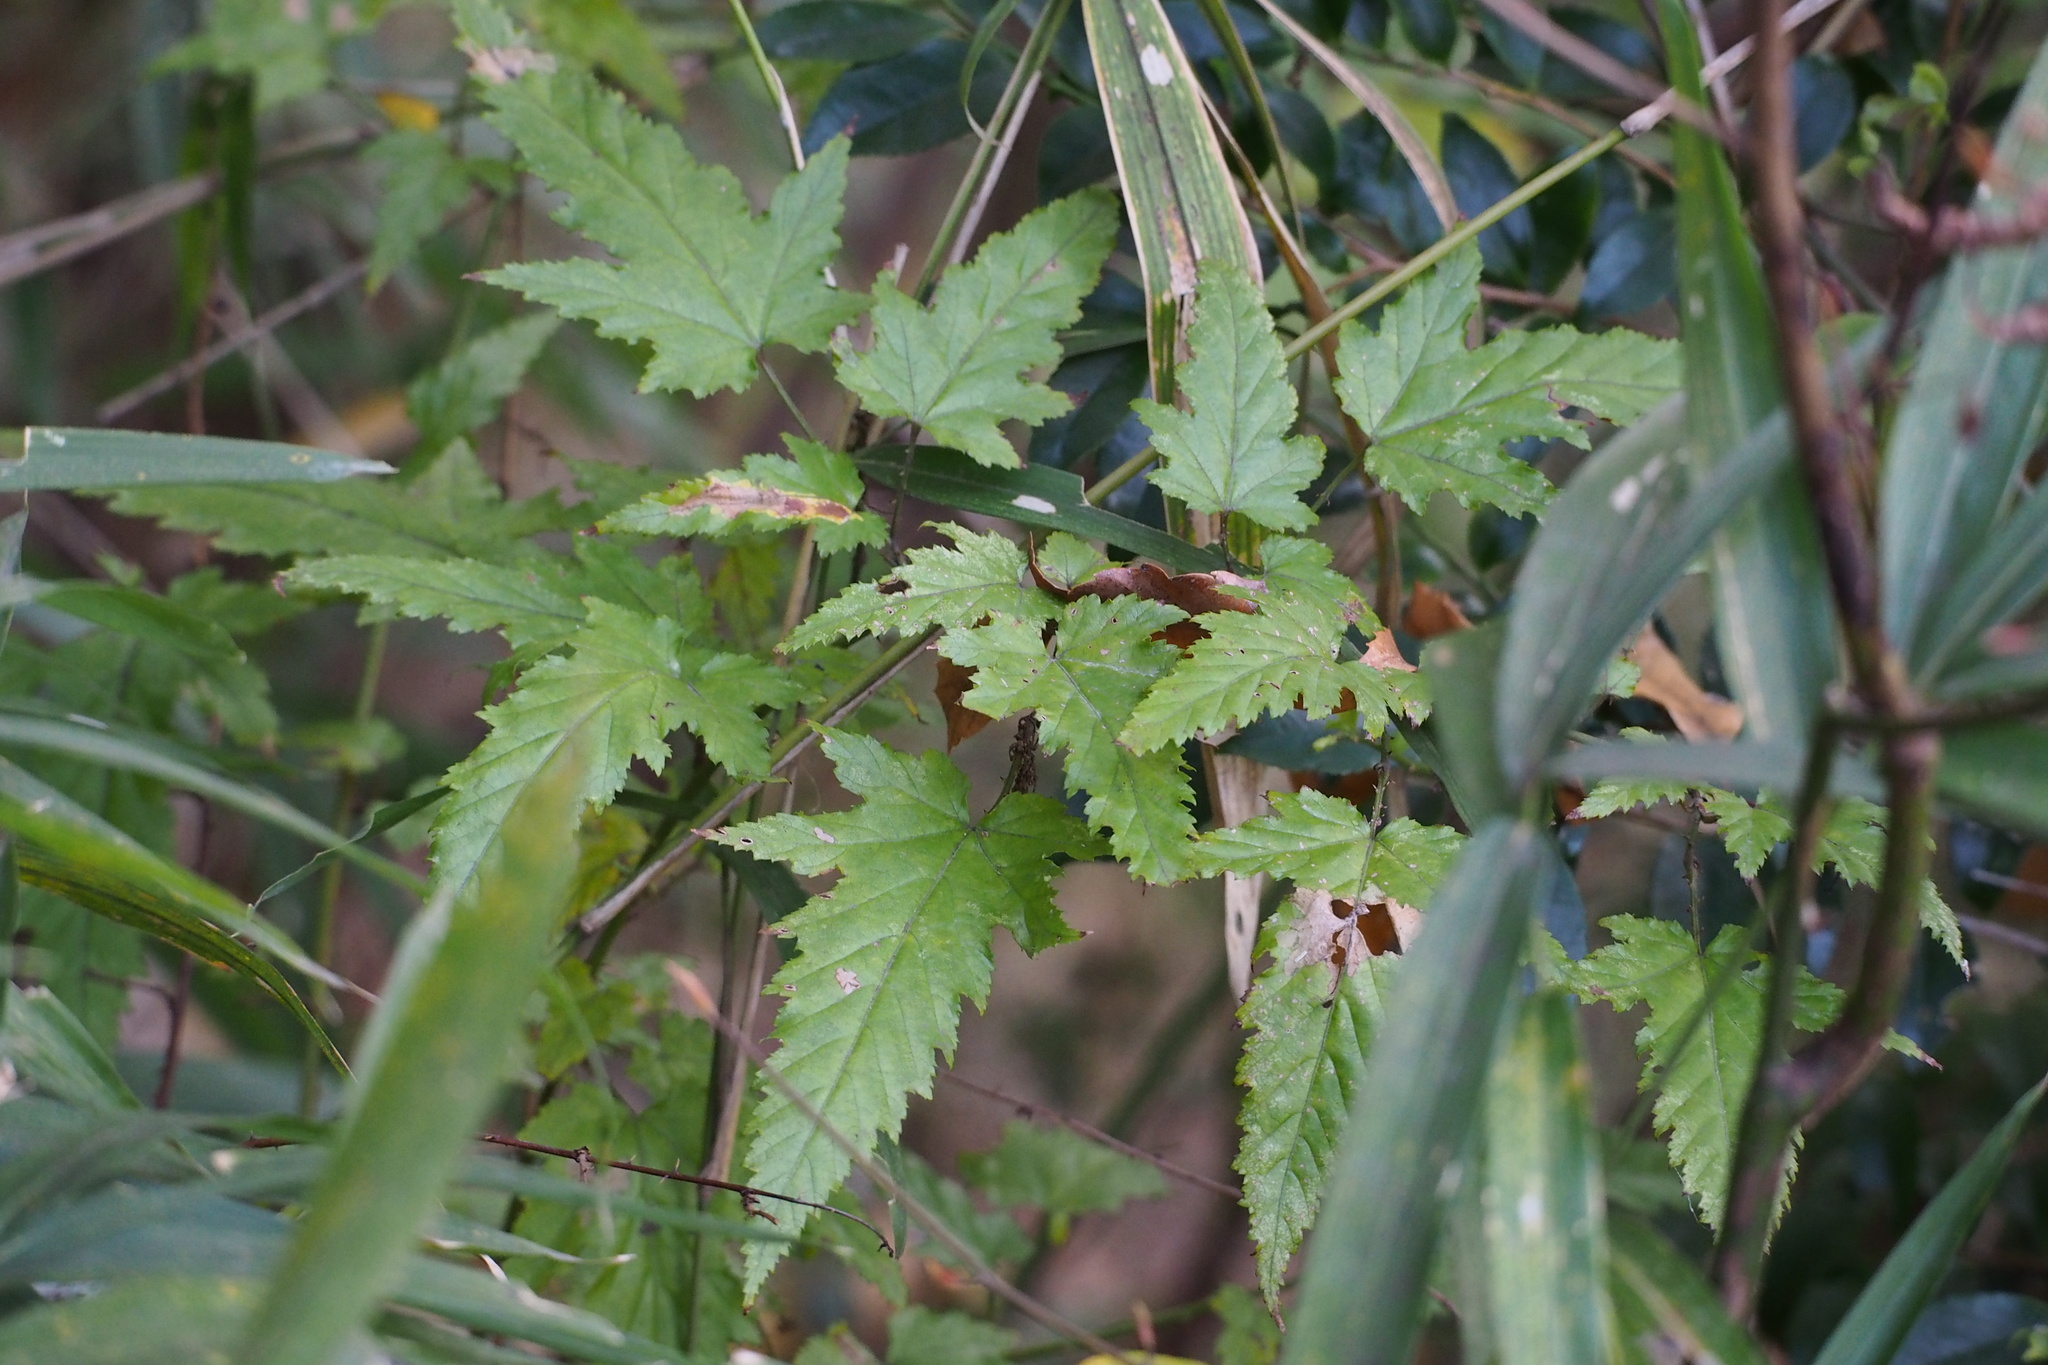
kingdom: Plantae
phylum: Tracheophyta
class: Magnoliopsida
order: Rosales
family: Rosaceae
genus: Rubus
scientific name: Rubus palmatus
